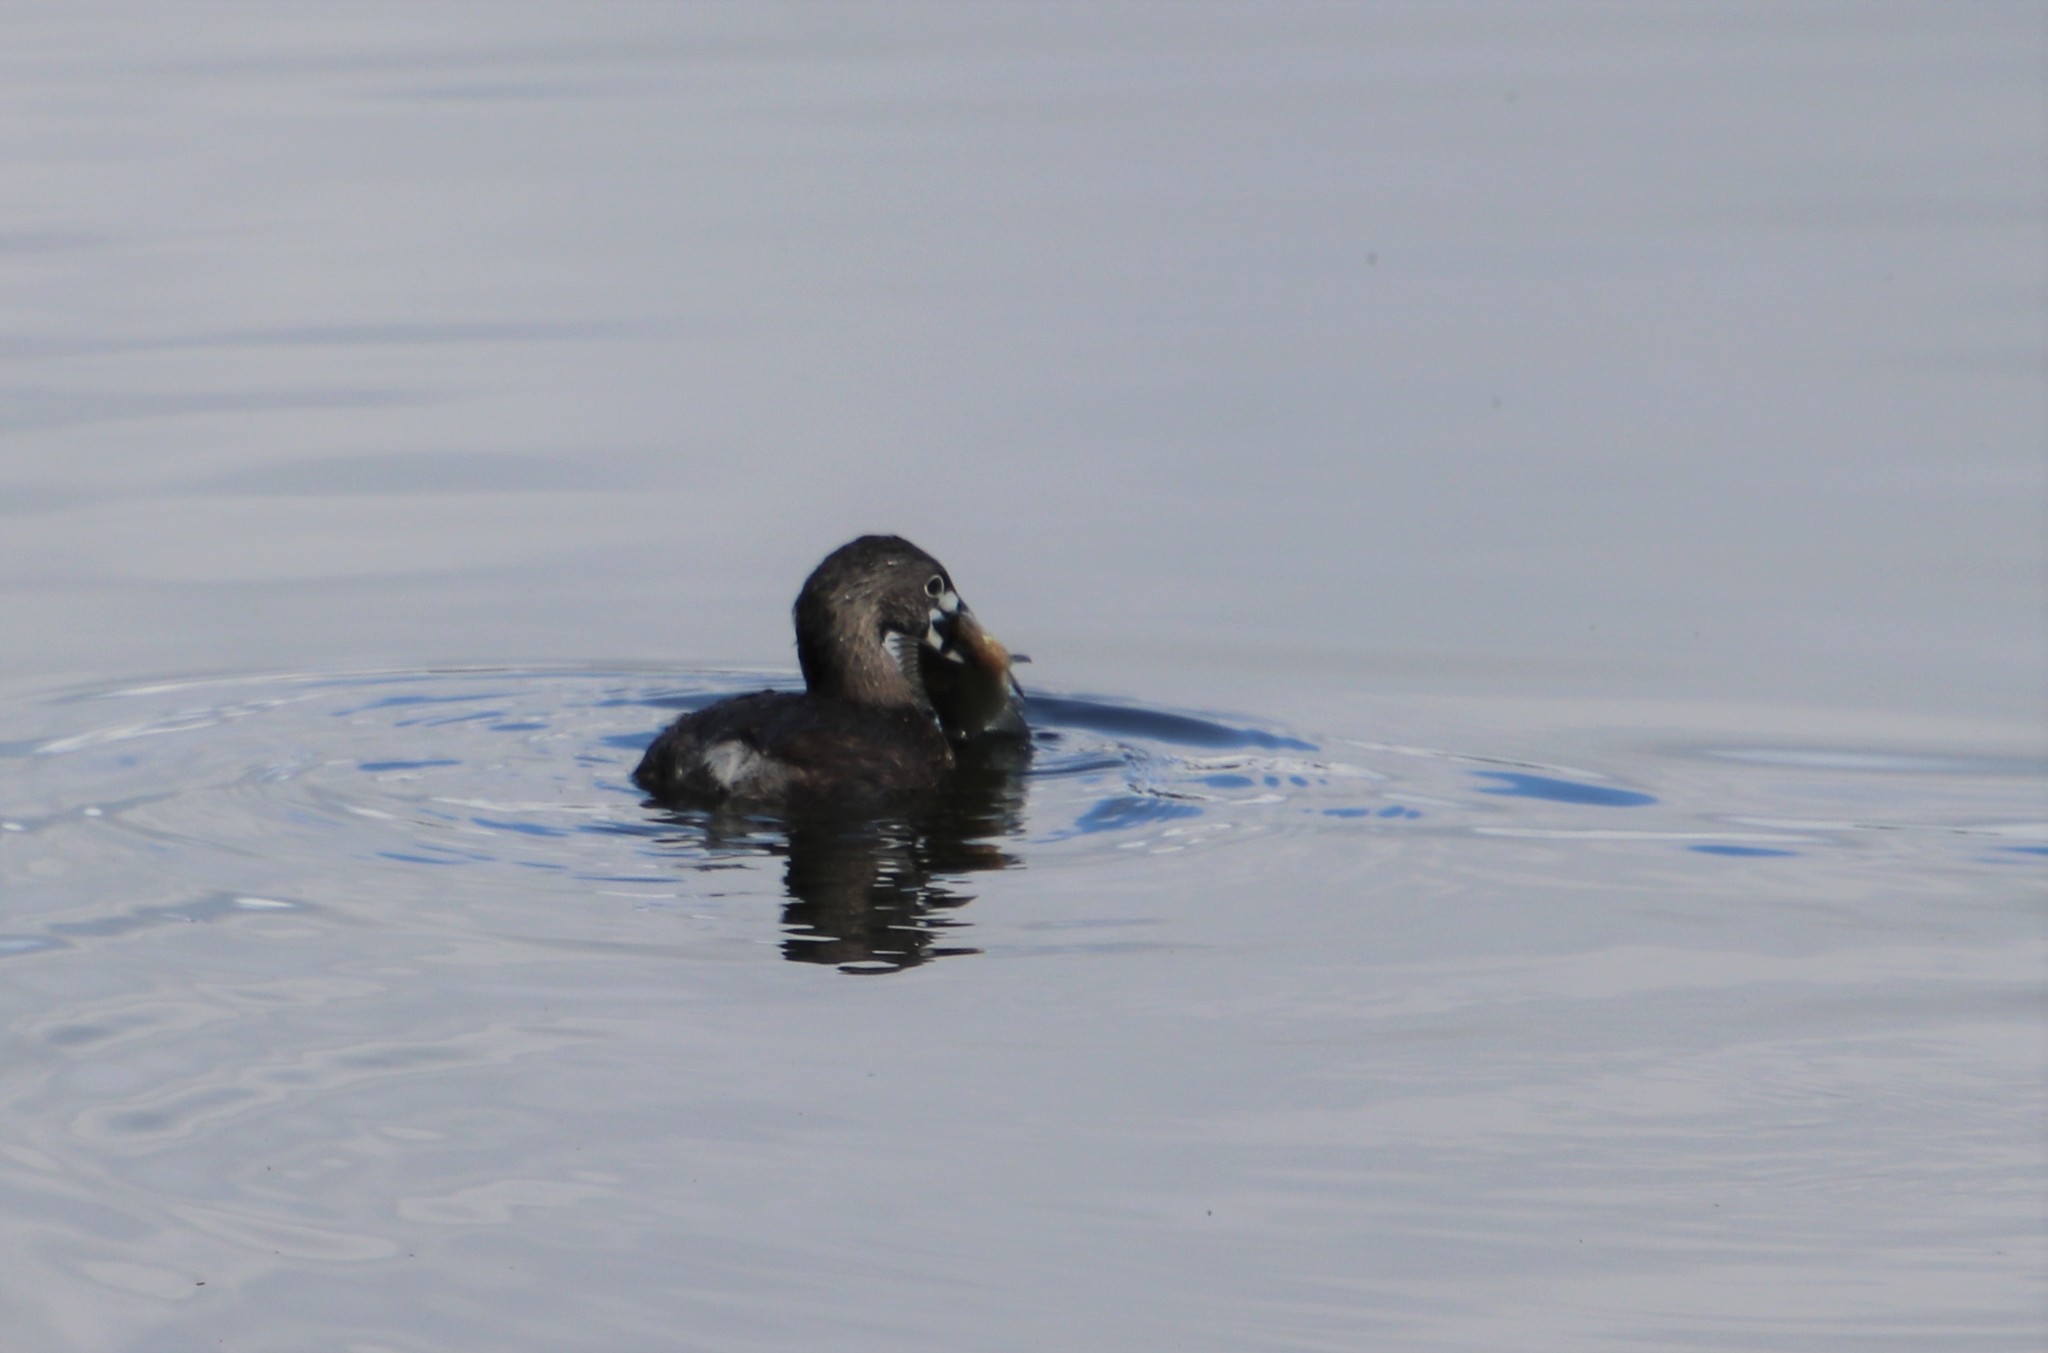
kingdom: Animalia
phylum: Chordata
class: Aves
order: Podicipediformes
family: Podicipedidae
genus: Podilymbus
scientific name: Podilymbus podiceps
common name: Pied-billed grebe
